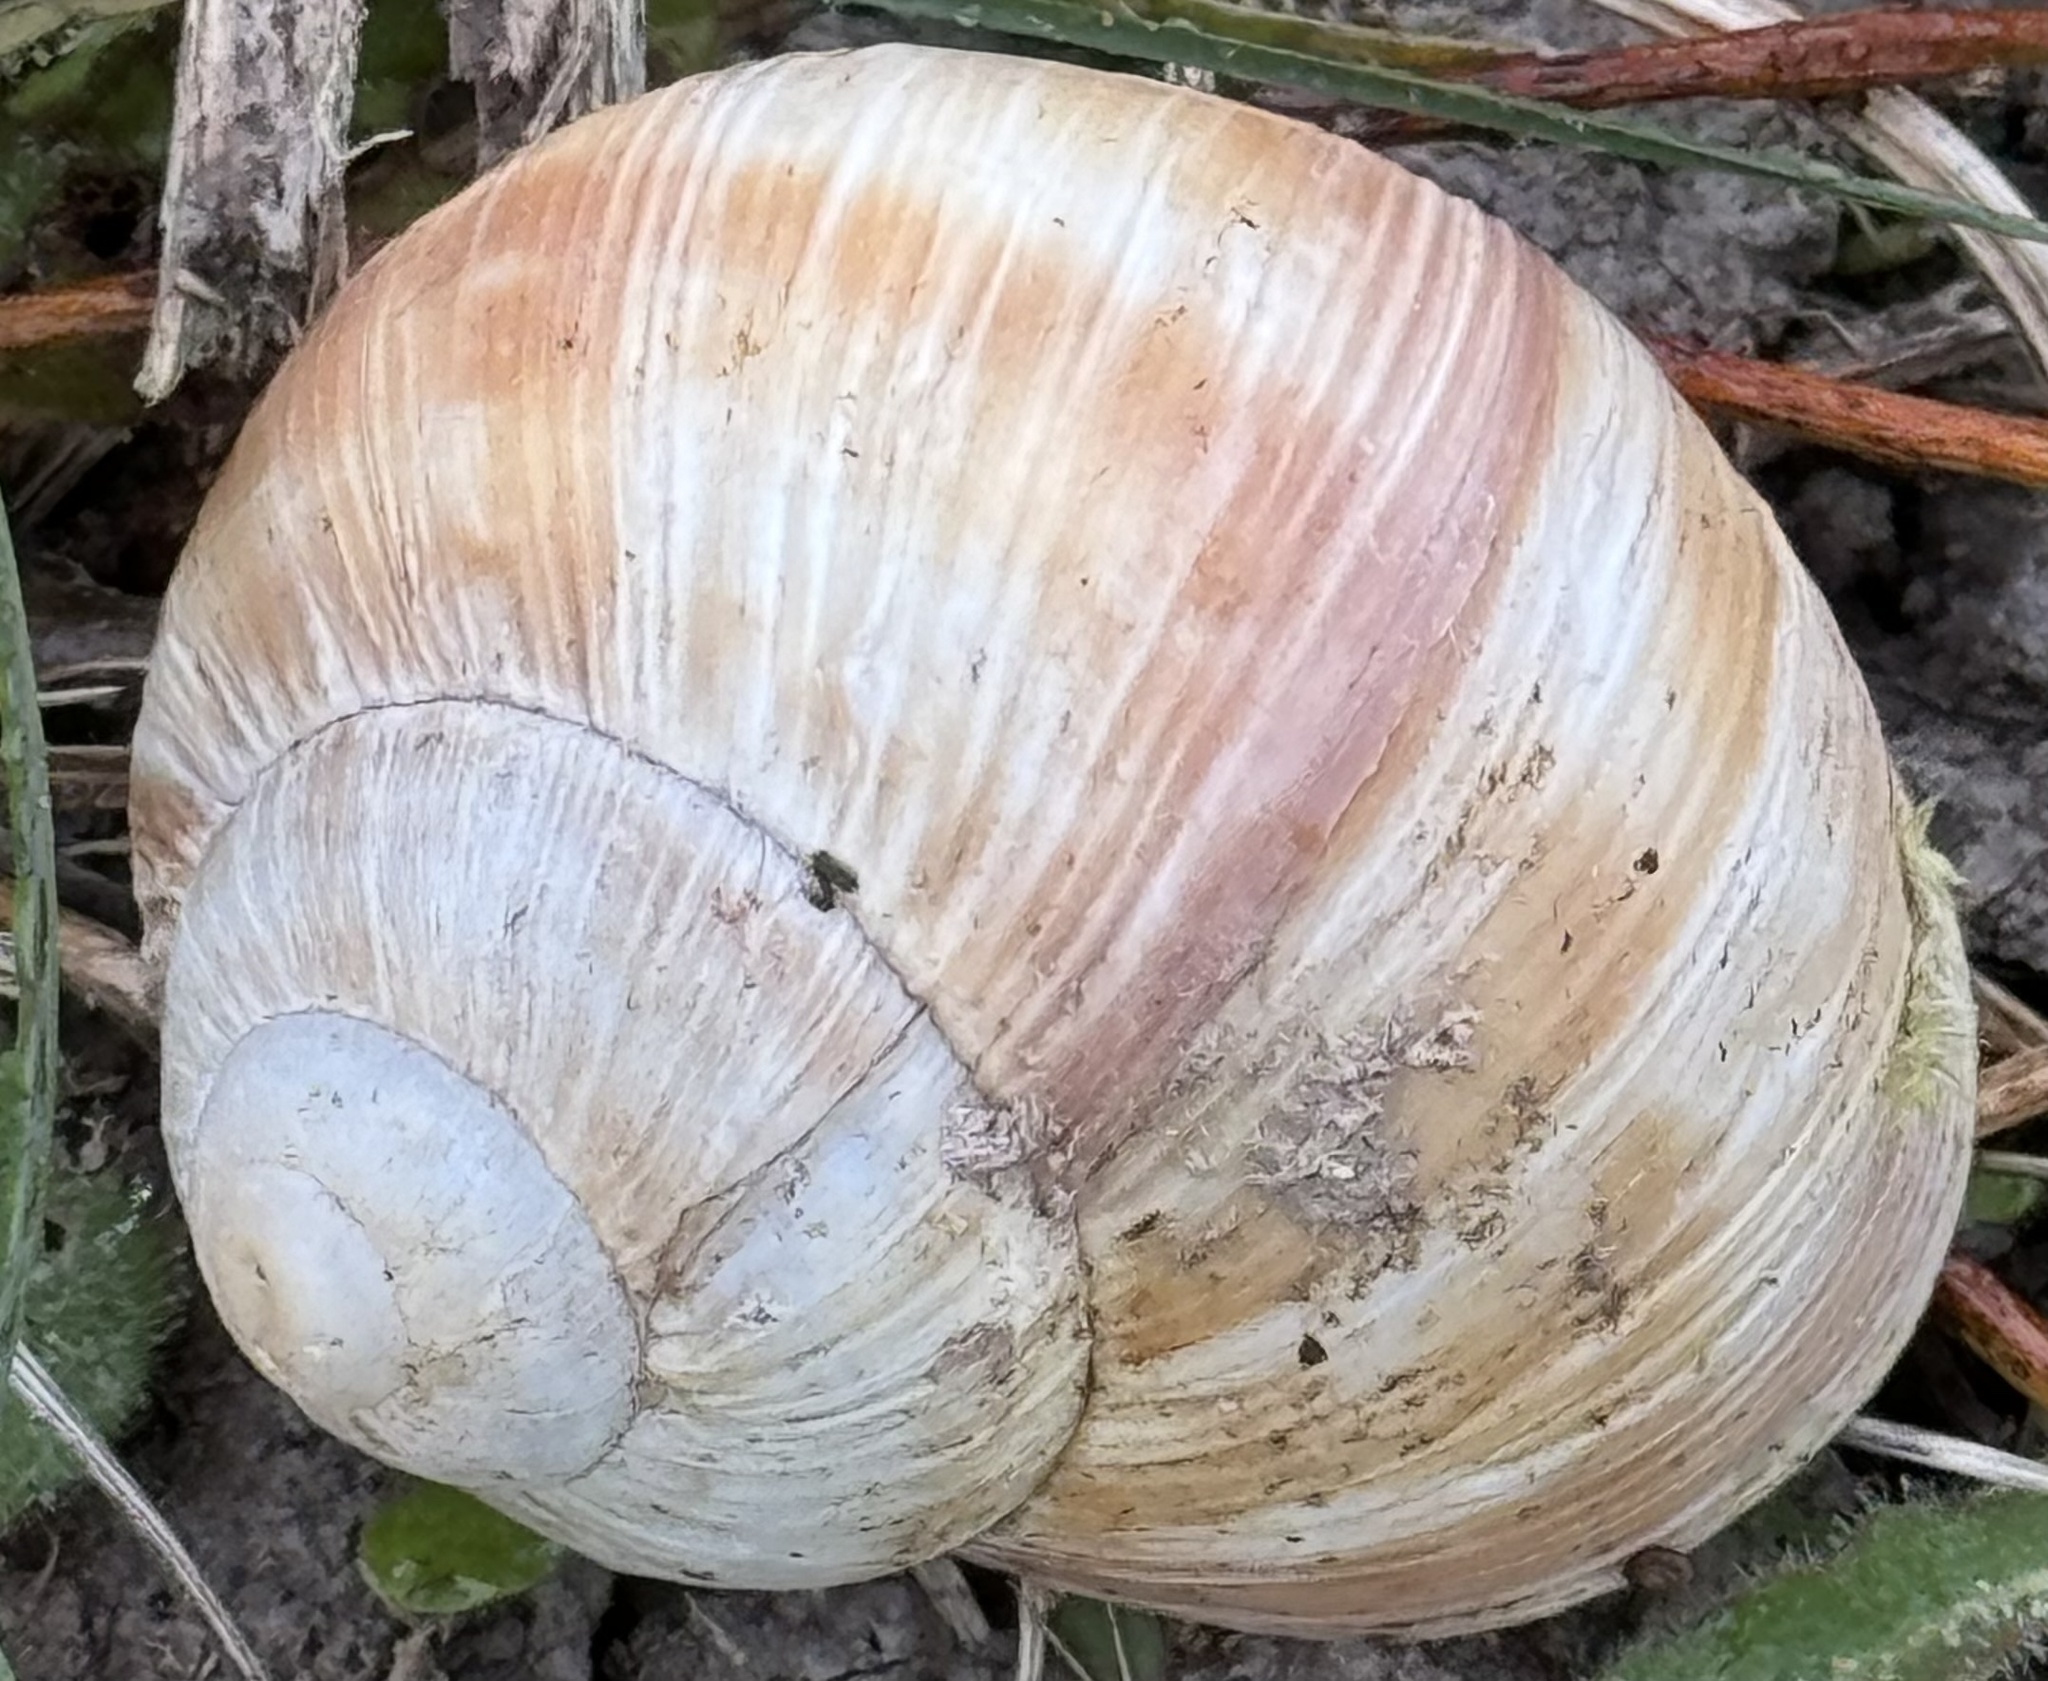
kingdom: Animalia
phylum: Mollusca
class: Gastropoda
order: Stylommatophora
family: Helicidae
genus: Helix
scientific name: Helix pomatia
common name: Roman snail
